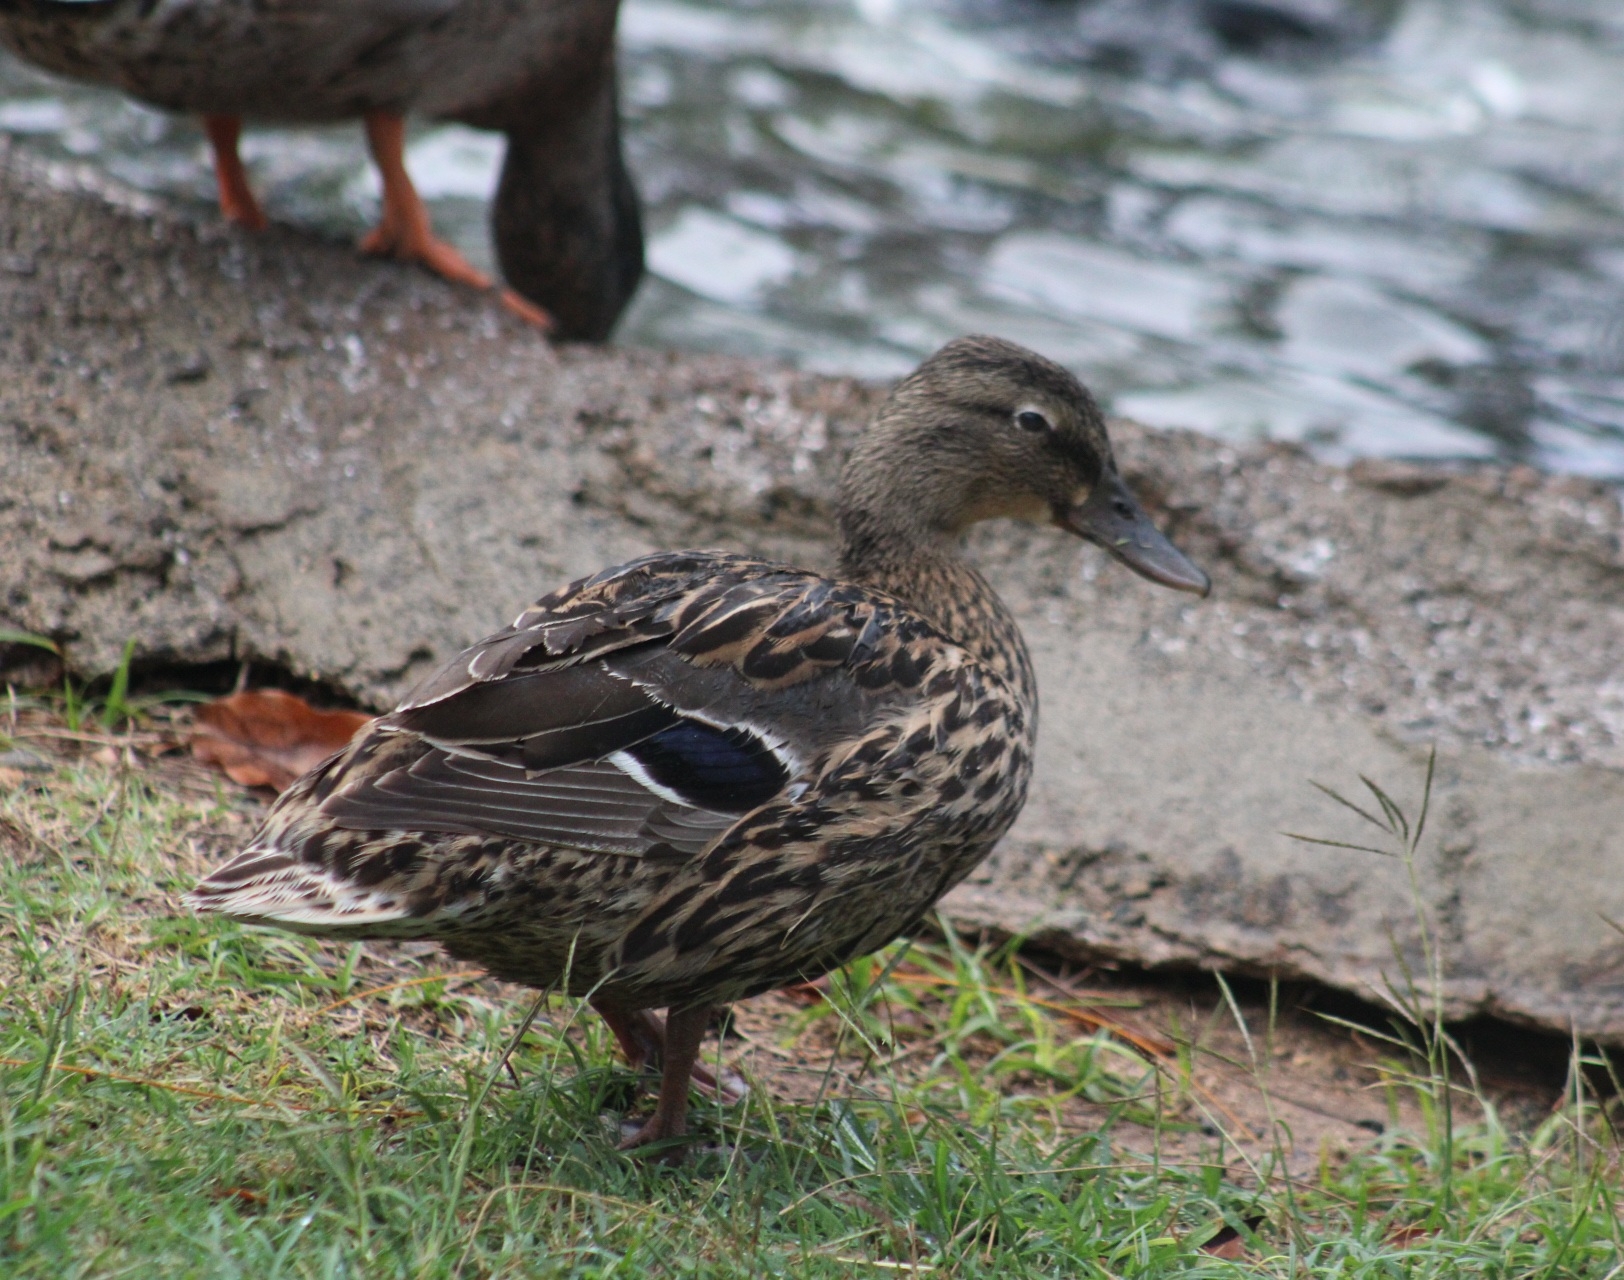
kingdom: Animalia
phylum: Chordata
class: Aves
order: Anseriformes
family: Anatidae
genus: Anas
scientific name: Anas
